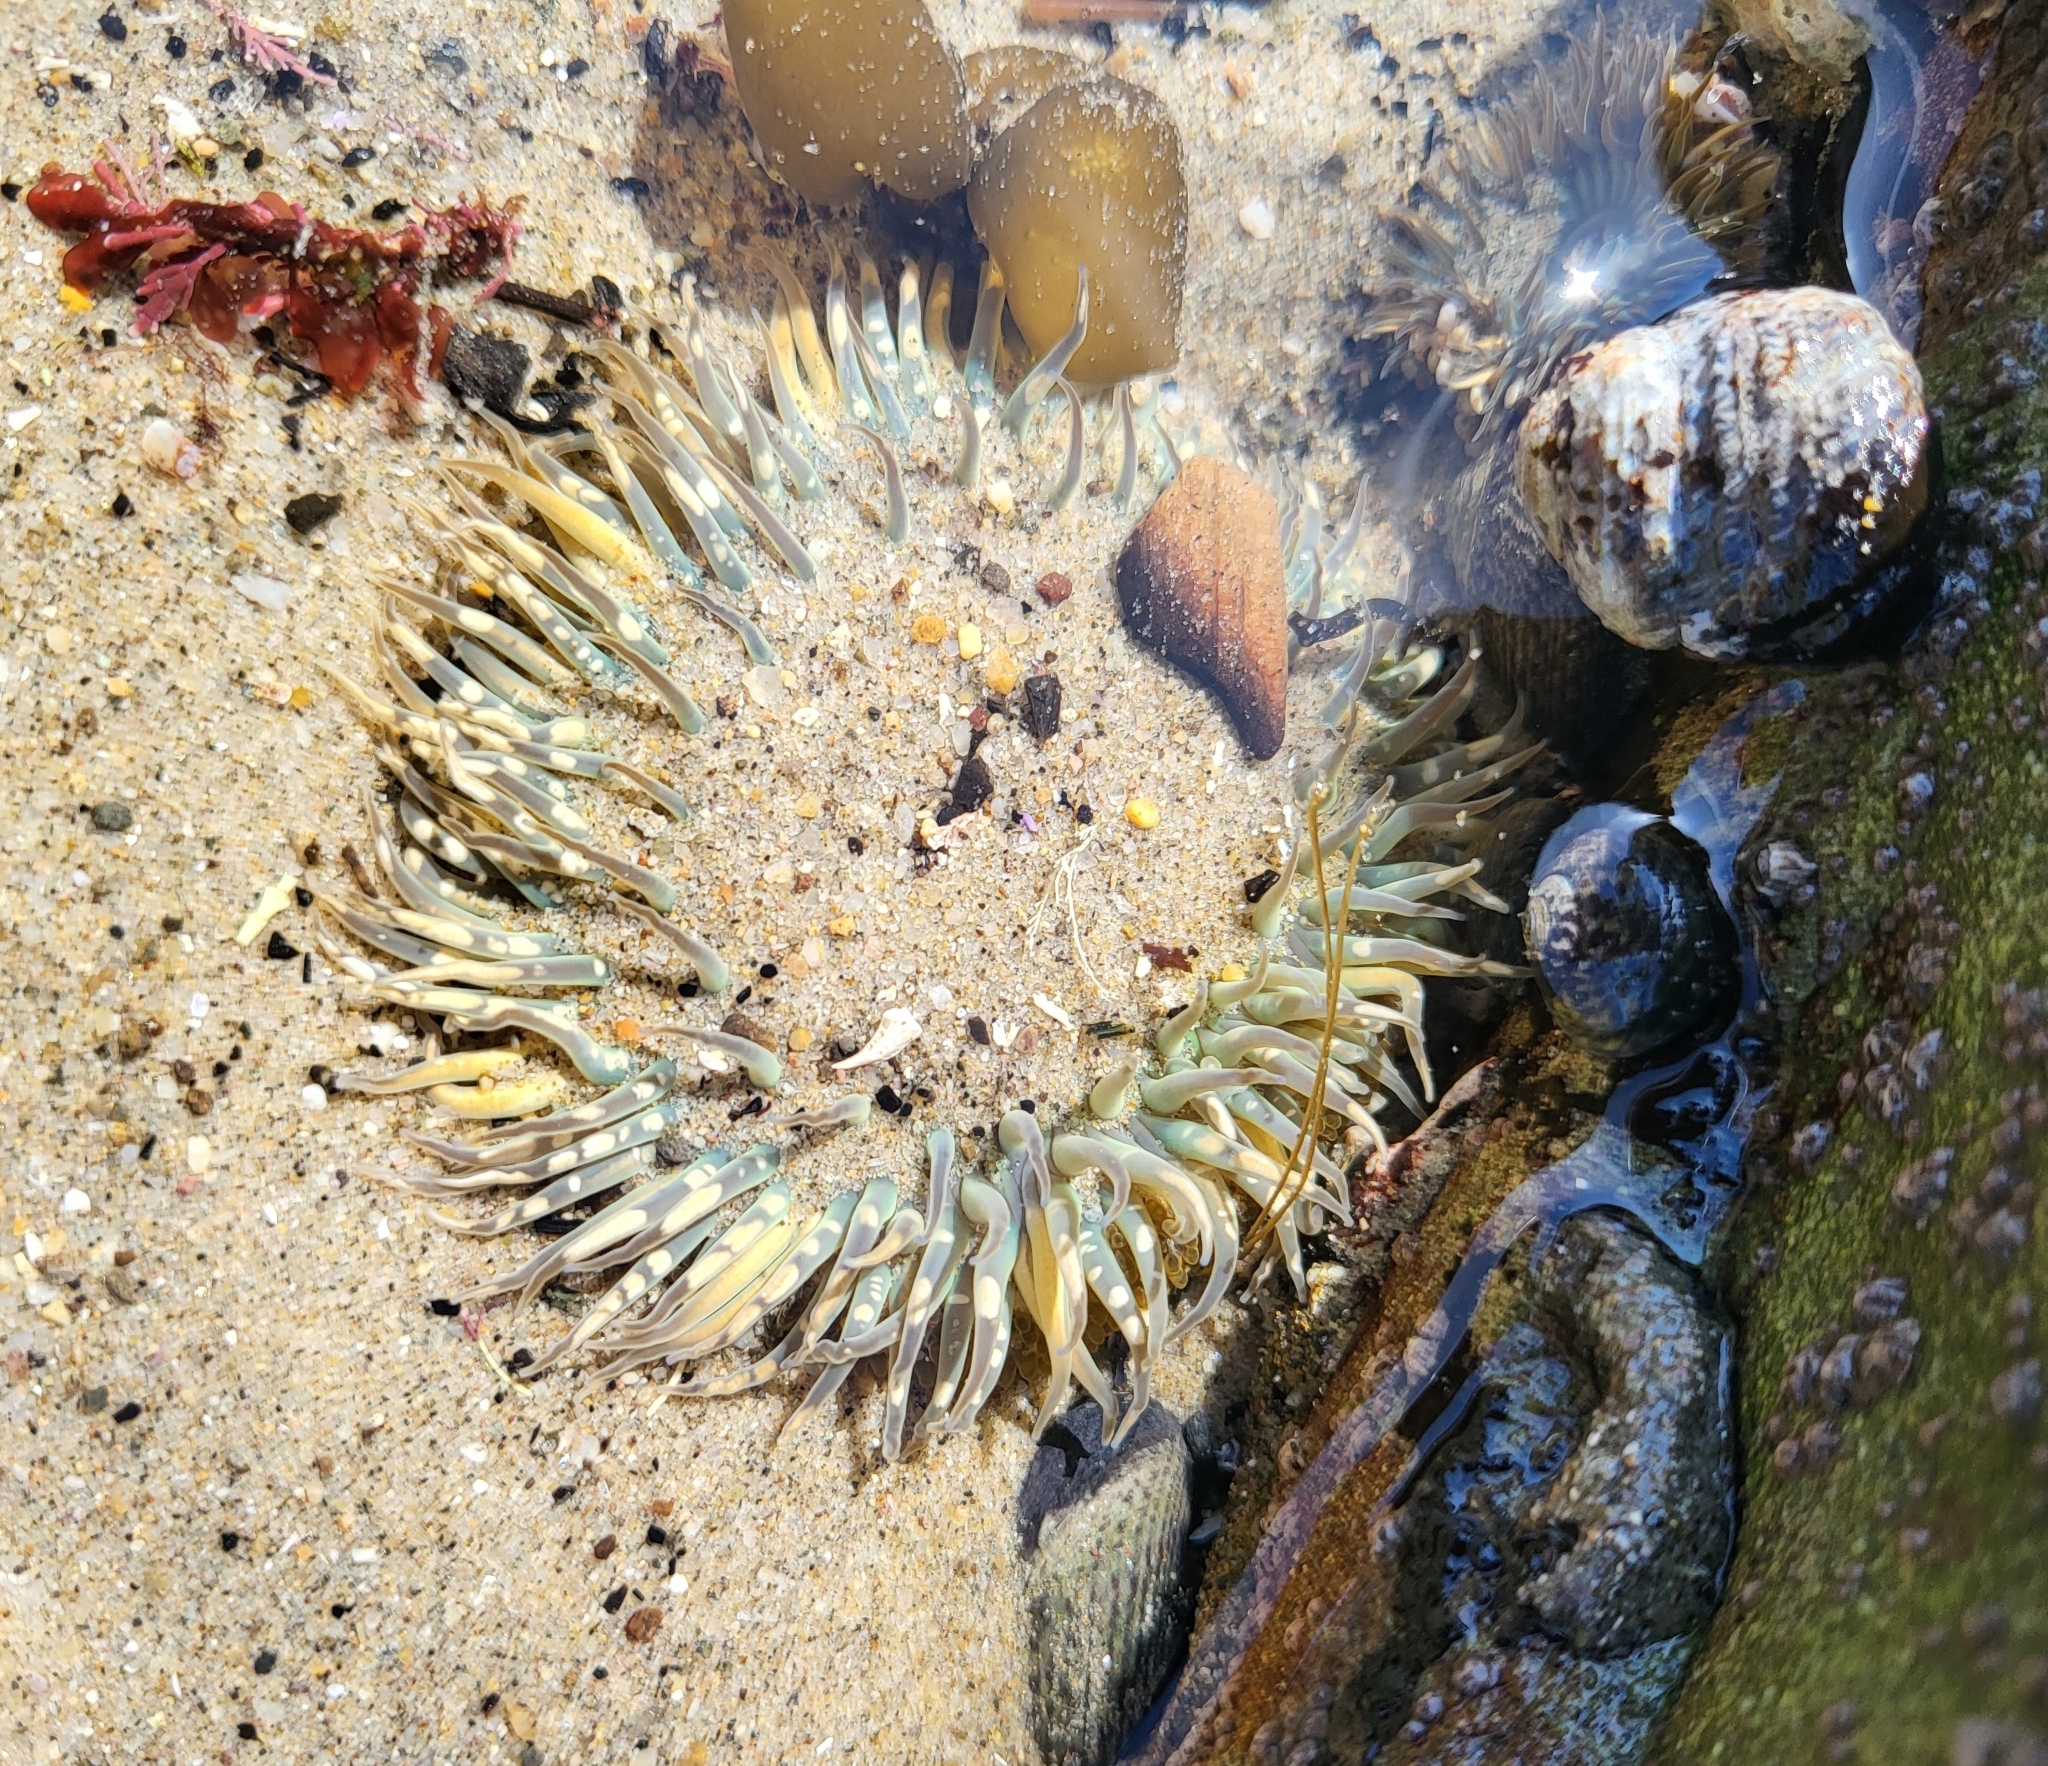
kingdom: Animalia
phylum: Cnidaria
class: Anthozoa
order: Actiniaria
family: Actiniidae
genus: Anthopleura
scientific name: Anthopleura sola
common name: Sun anemone
